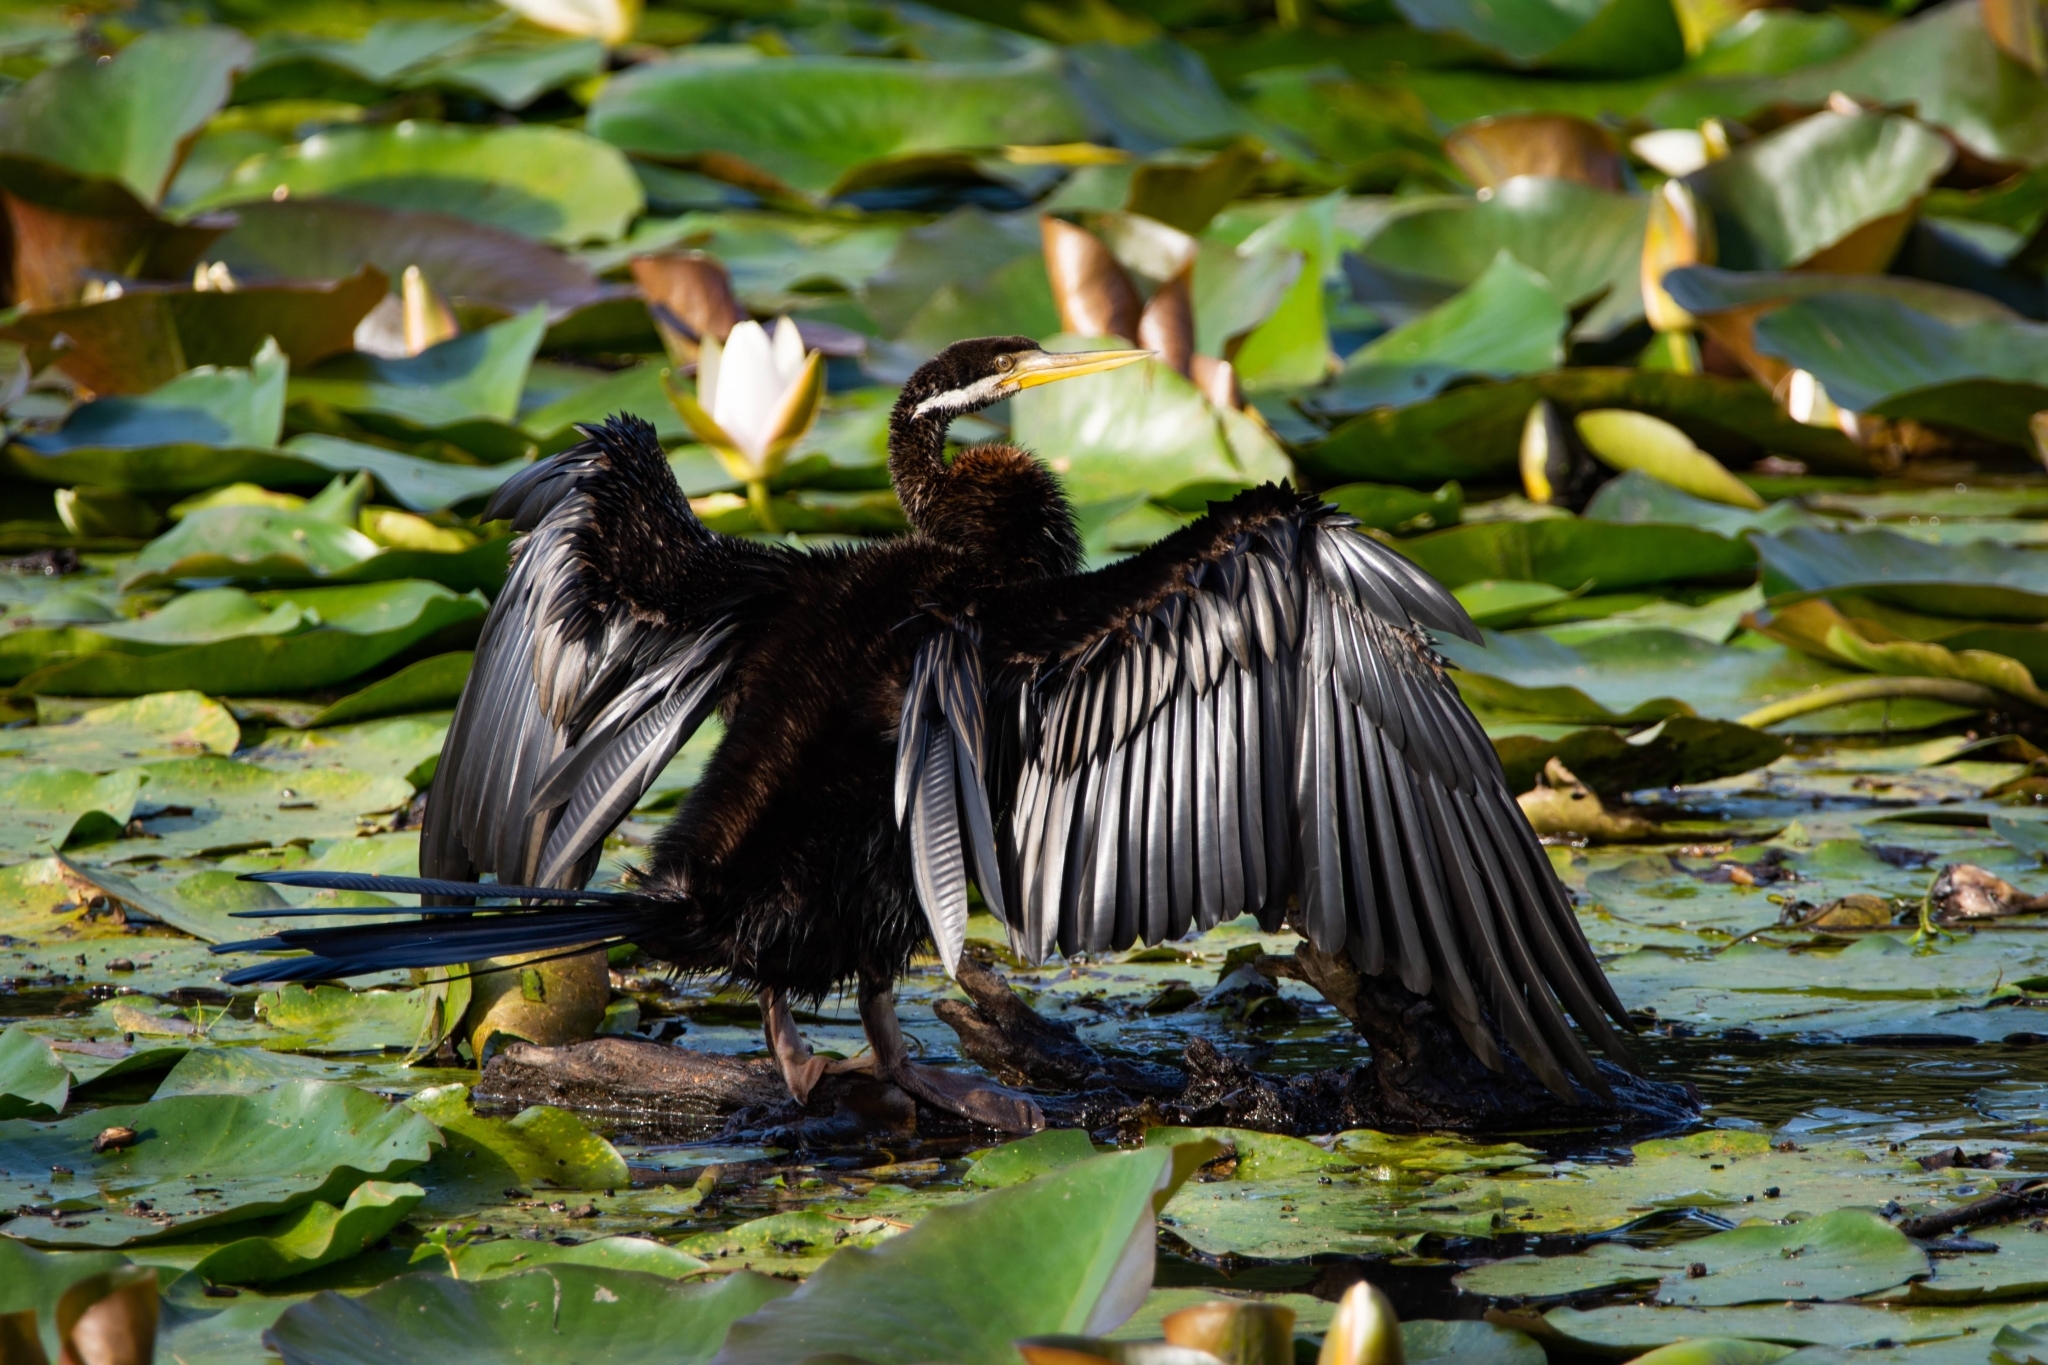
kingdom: Animalia
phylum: Chordata
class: Aves
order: Suliformes
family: Anhingidae
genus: Anhinga
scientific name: Anhinga novaehollandiae
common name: Australasian darter
